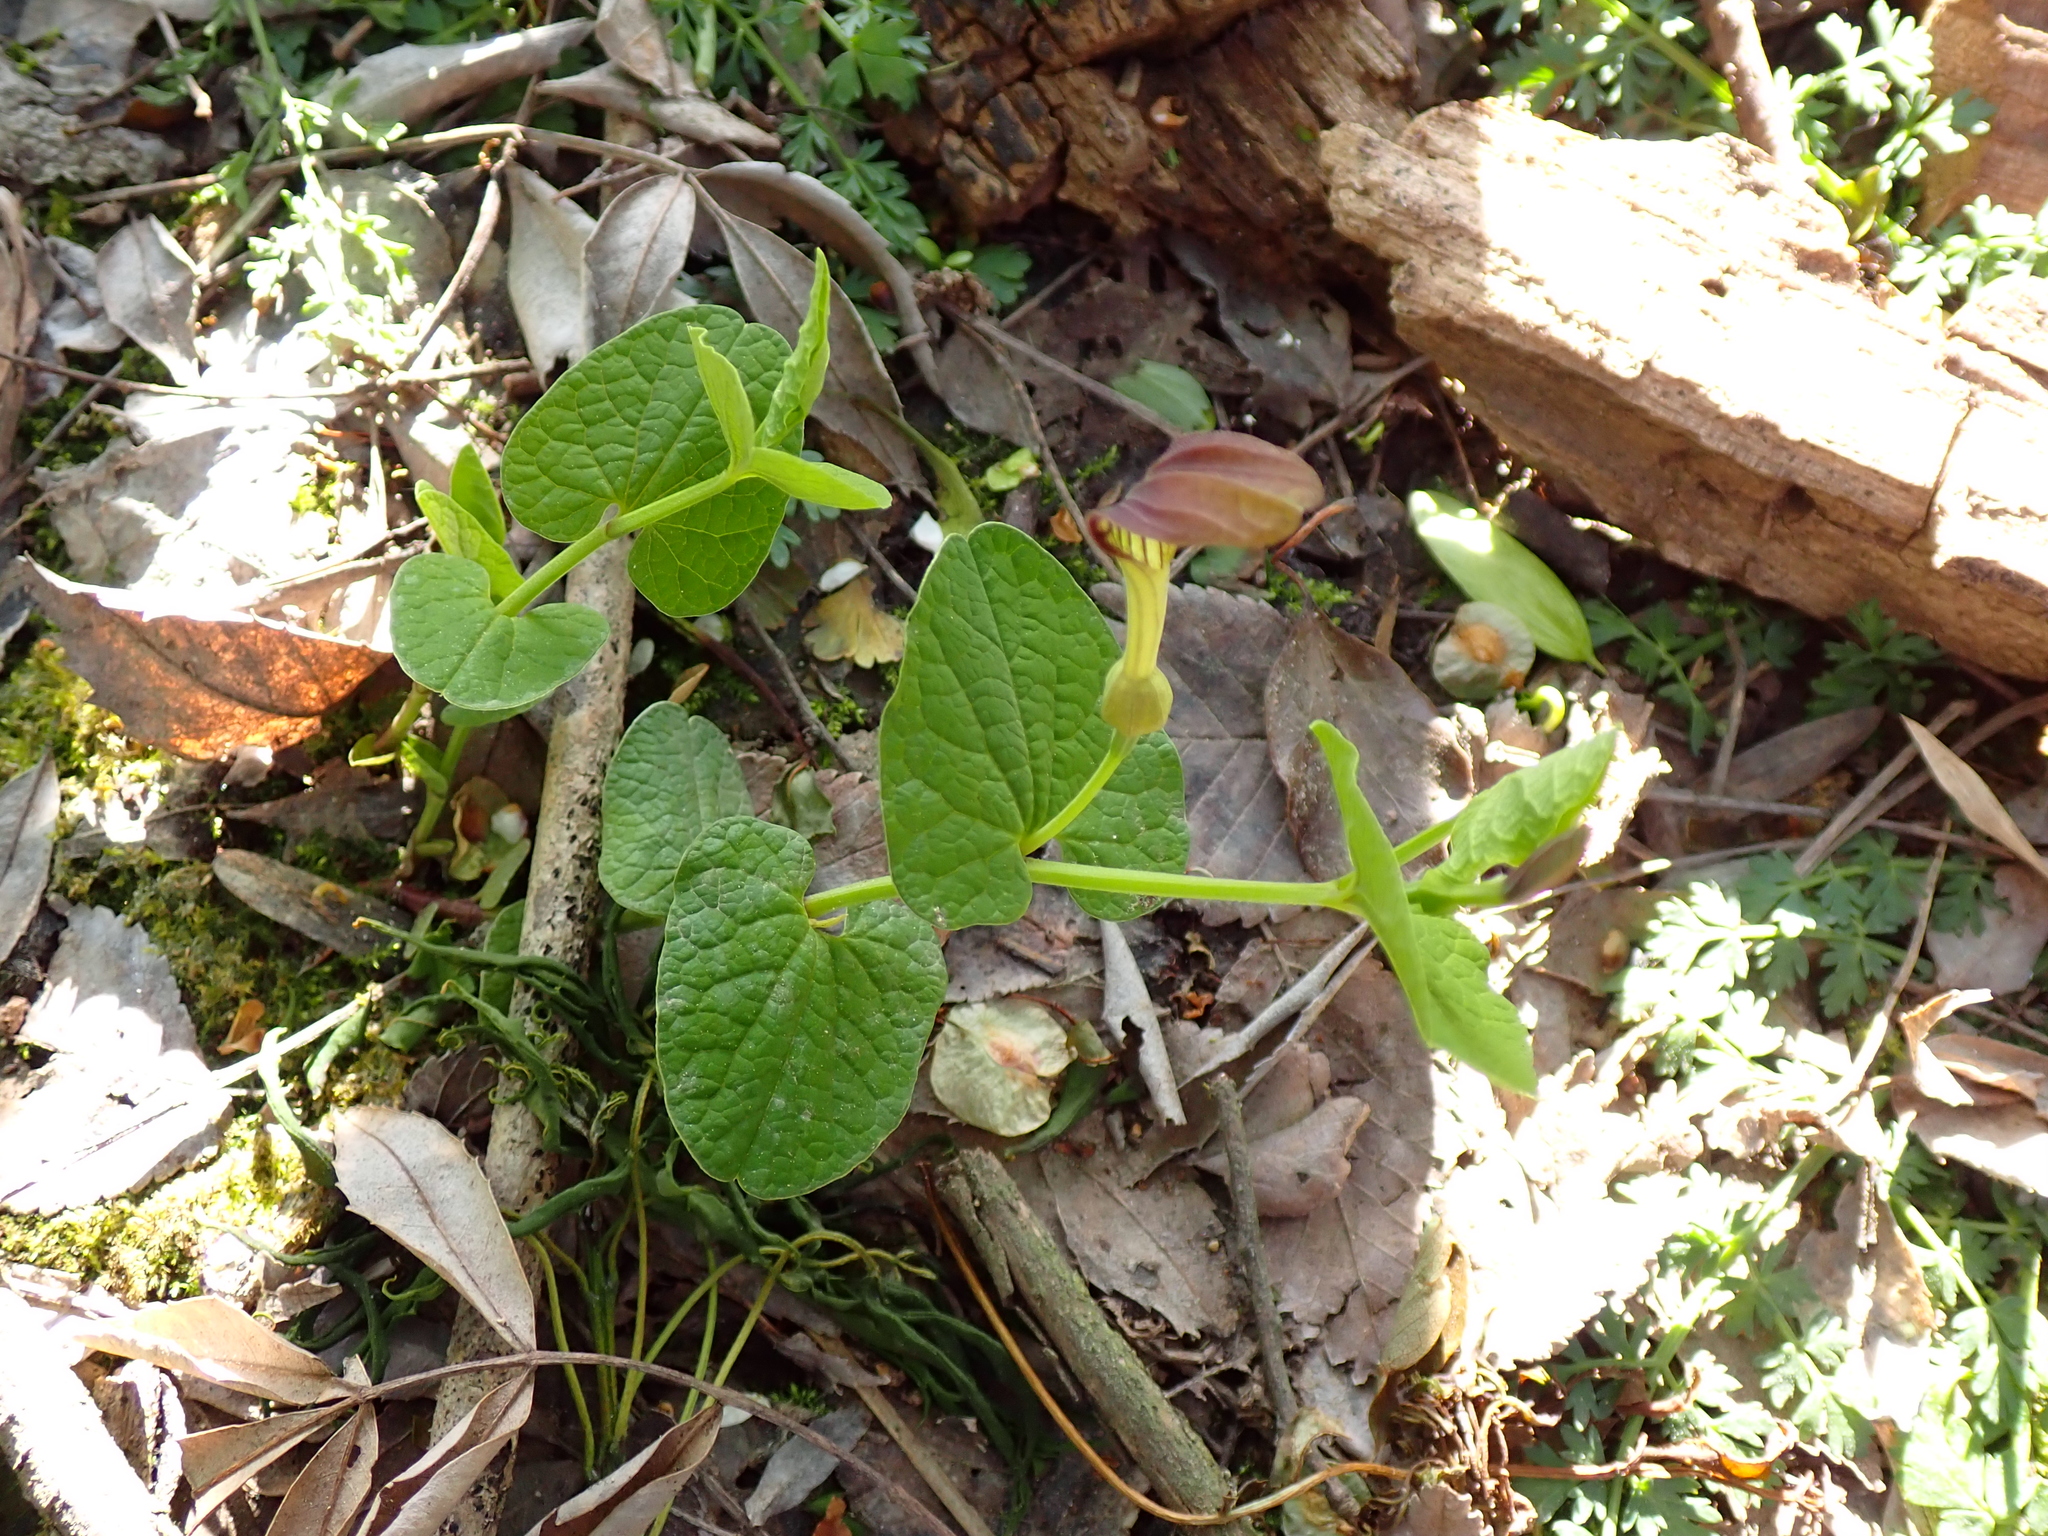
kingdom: Plantae
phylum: Tracheophyta
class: Magnoliopsida
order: Piperales
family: Aristolochiaceae
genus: Aristolochia
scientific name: Aristolochia rotunda
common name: Smearwort
